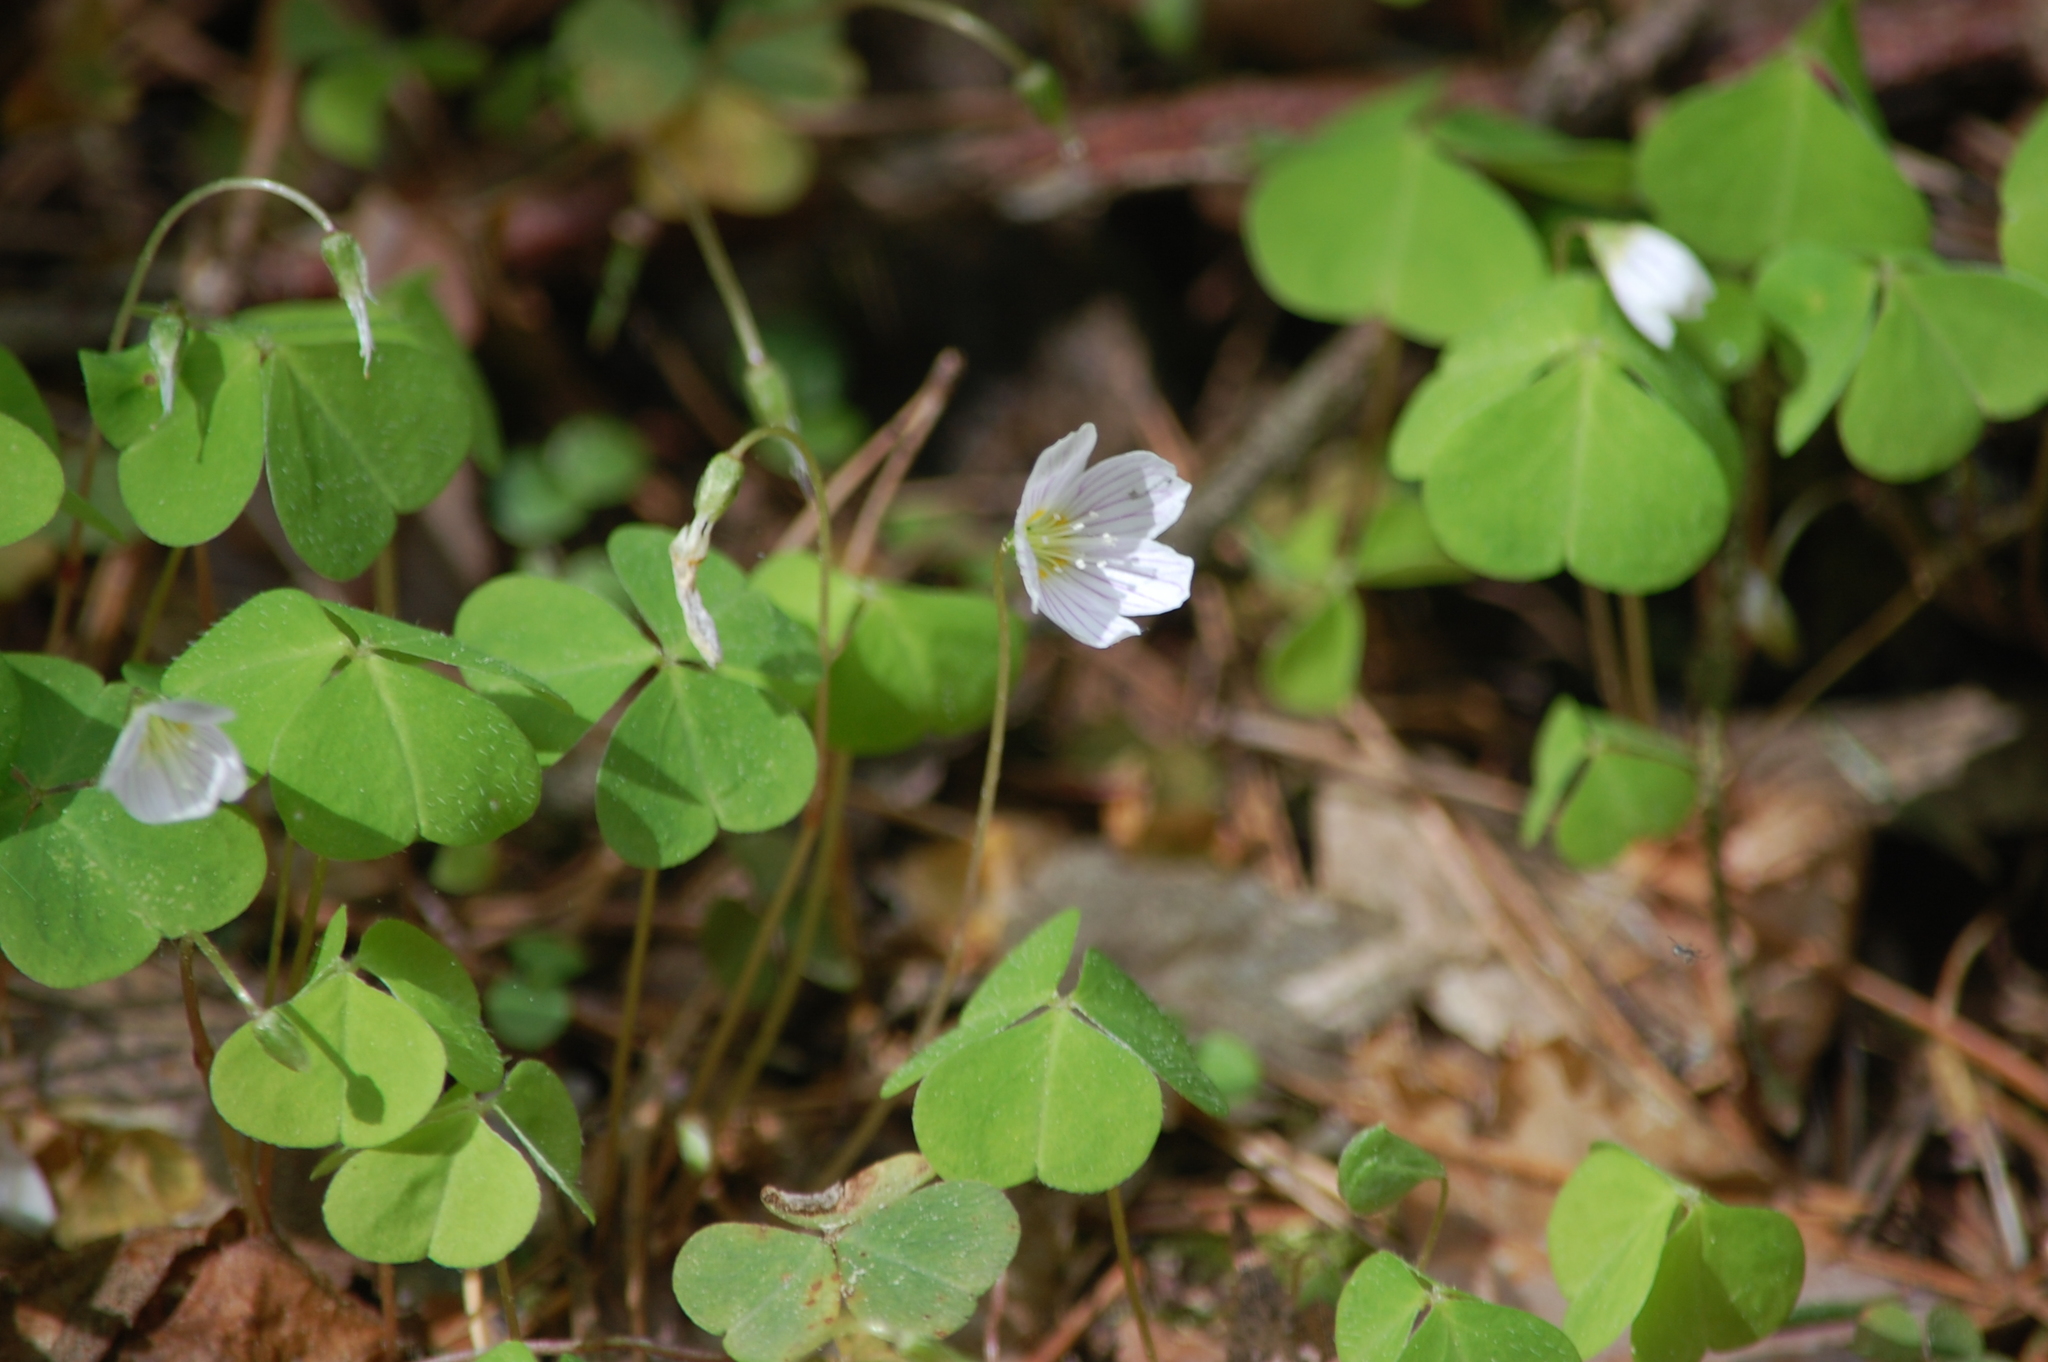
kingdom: Plantae
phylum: Tracheophyta
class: Magnoliopsida
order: Oxalidales
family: Oxalidaceae
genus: Oxalis
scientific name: Oxalis acetosella
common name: Wood-sorrel
